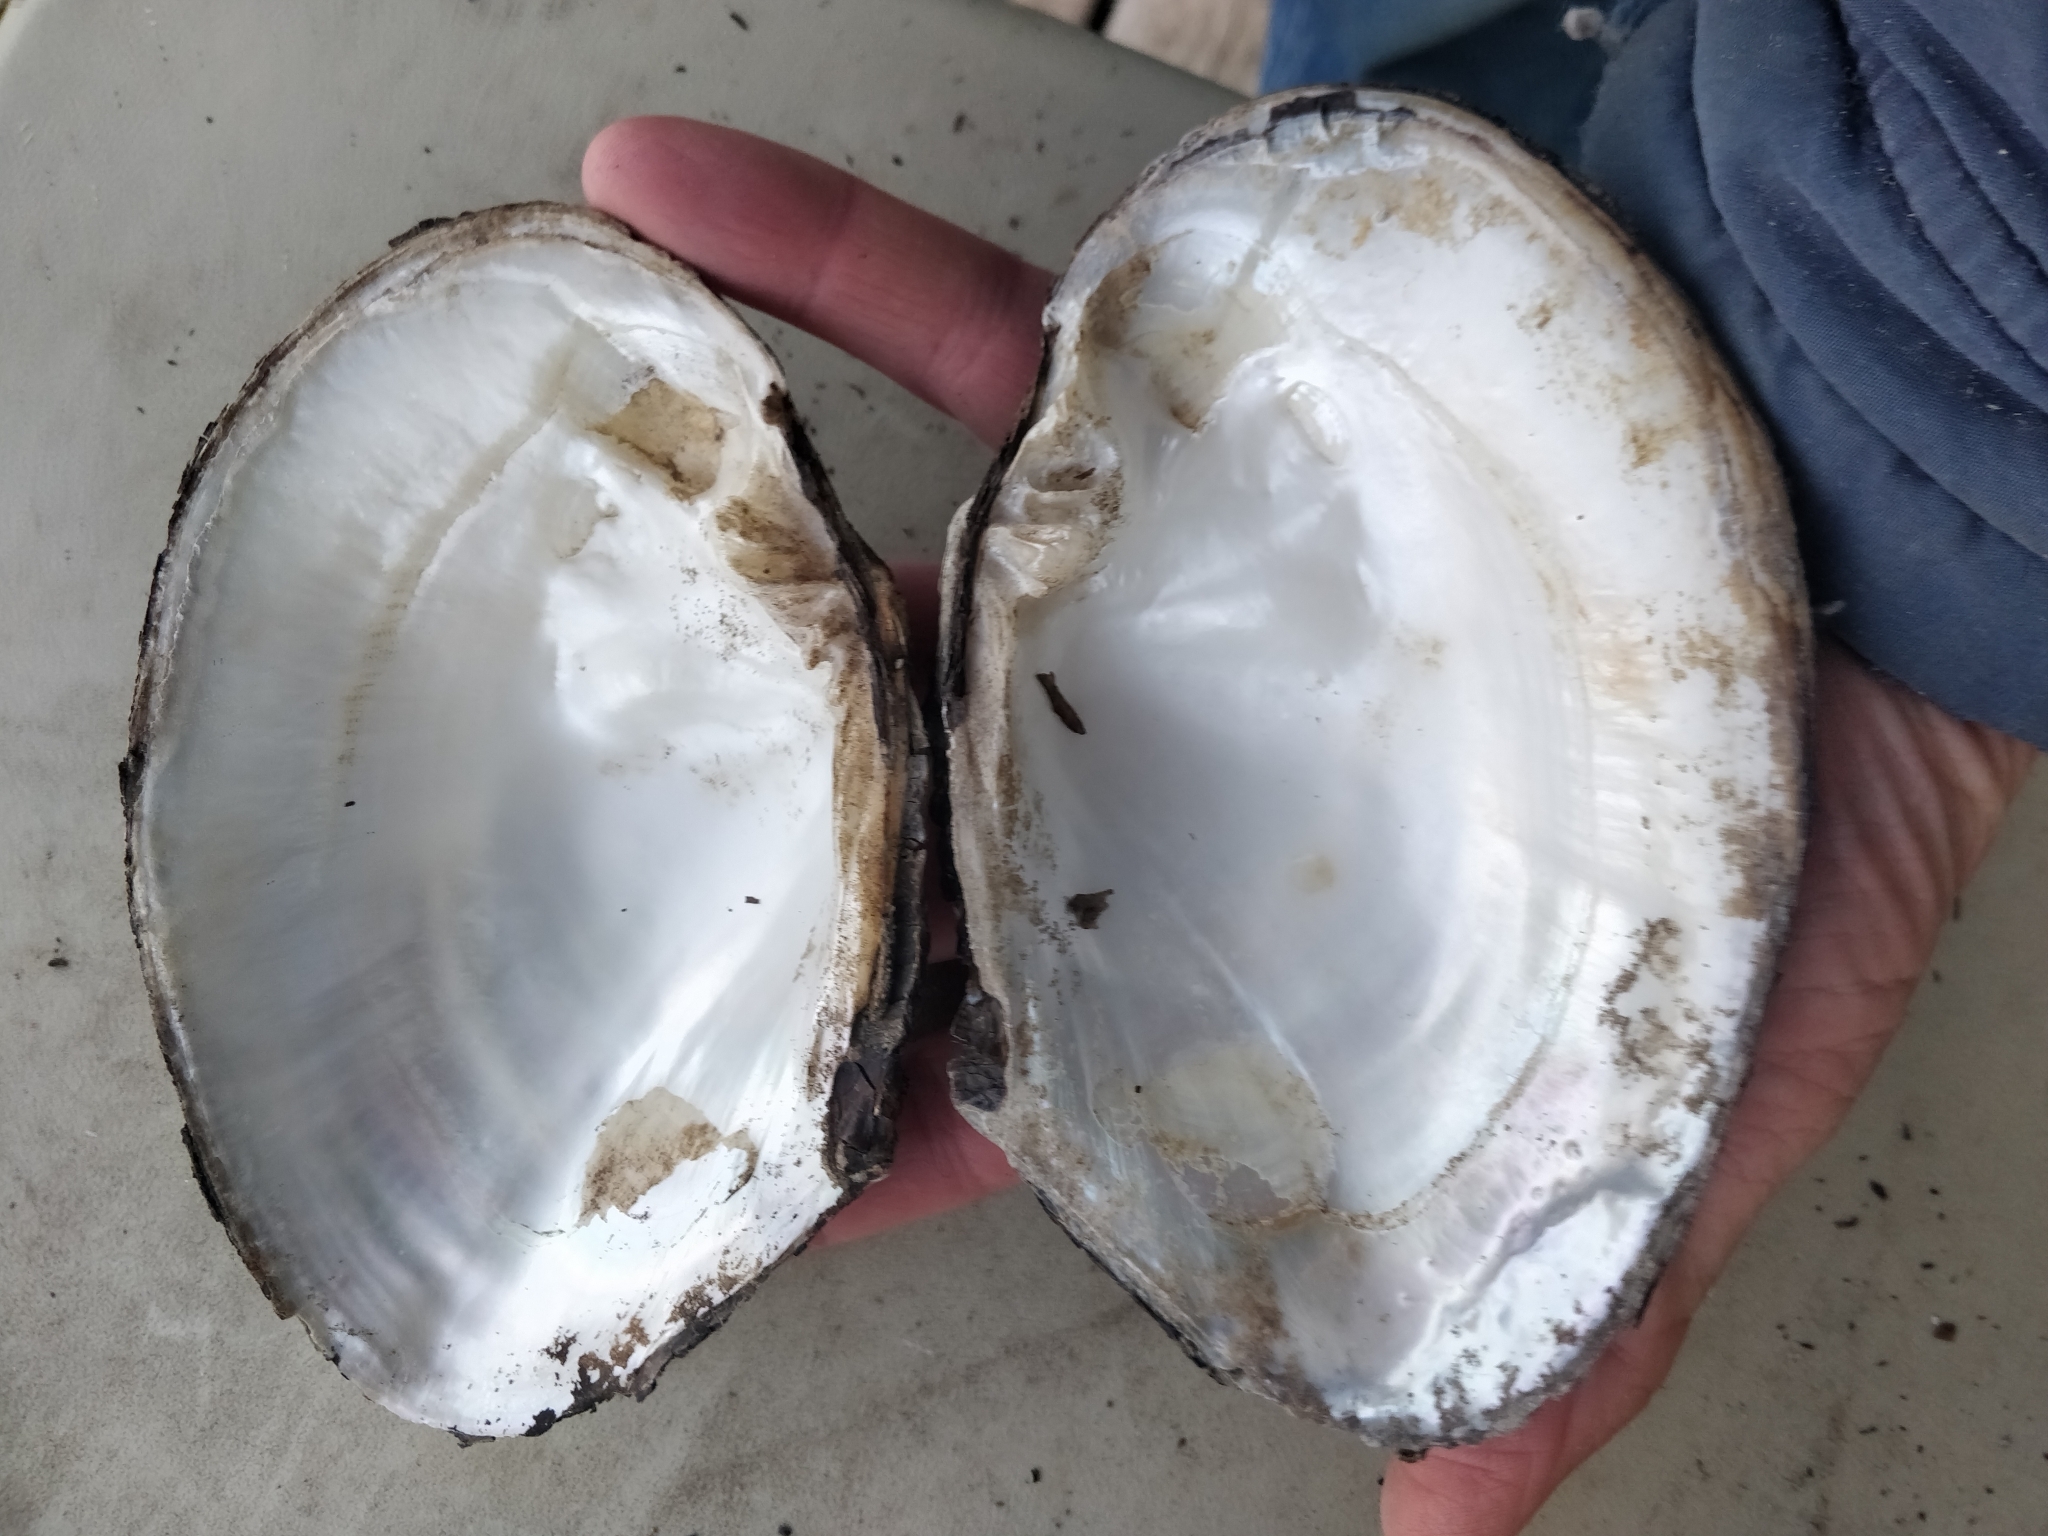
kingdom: Animalia
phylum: Mollusca
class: Bivalvia
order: Unionida
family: Unionidae
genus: Lasmigona
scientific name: Lasmigona complanata
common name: White heelsplitter
